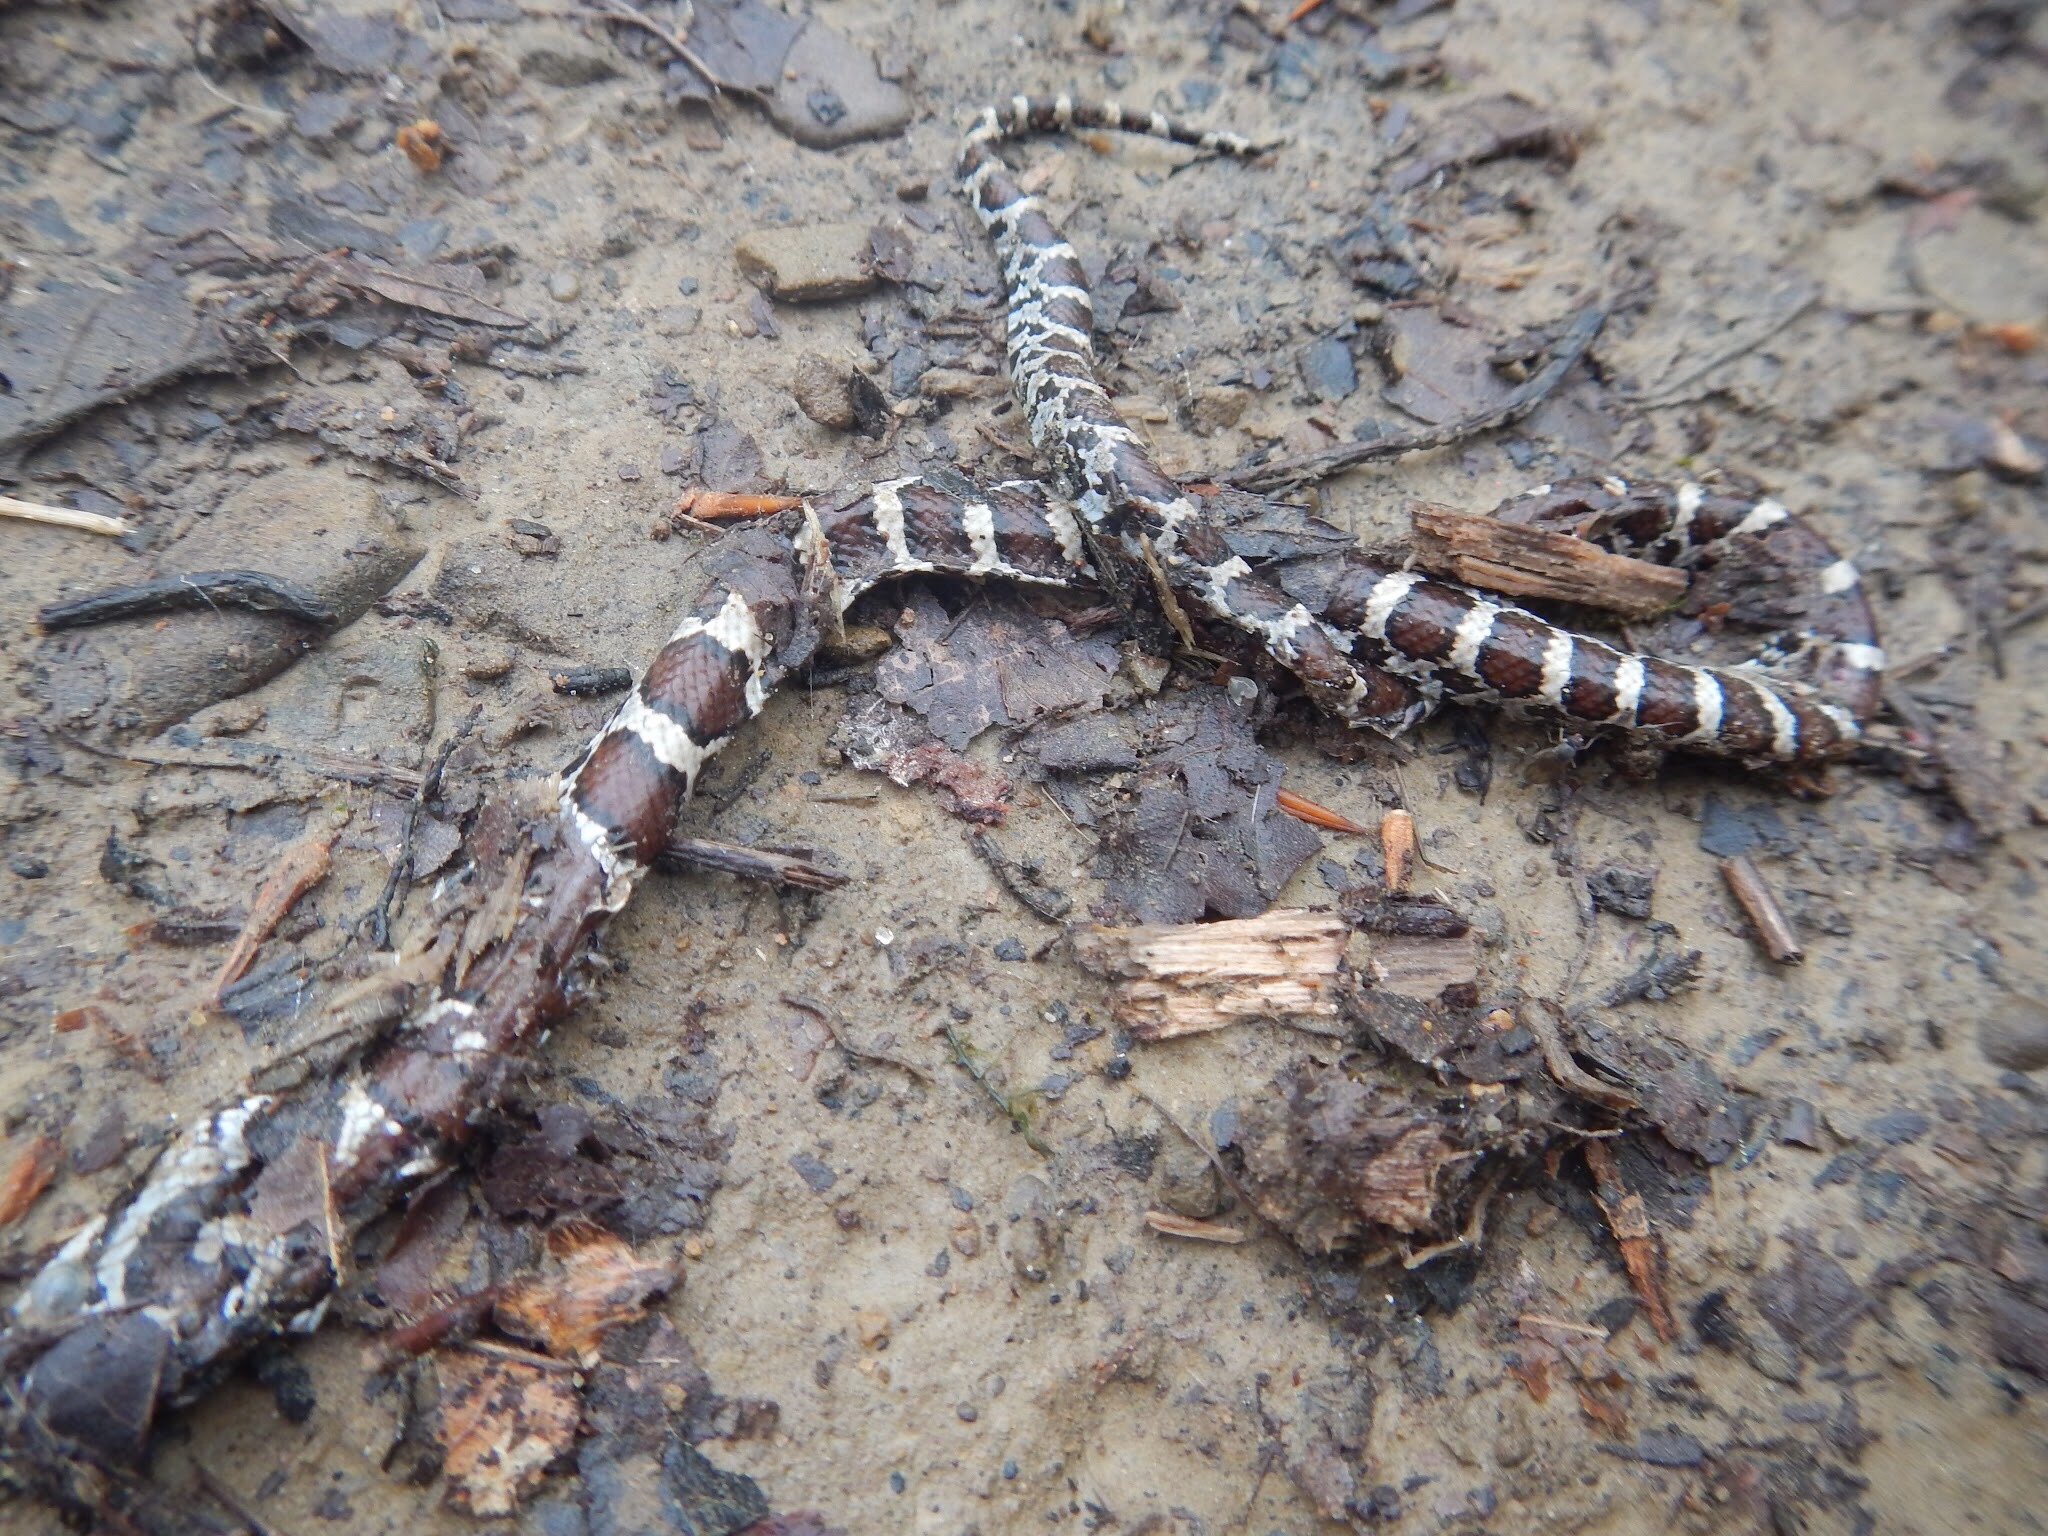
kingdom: Animalia
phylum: Chordata
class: Squamata
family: Colubridae
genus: Lampropeltis
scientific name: Lampropeltis triangulum
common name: Eastern milksnake
